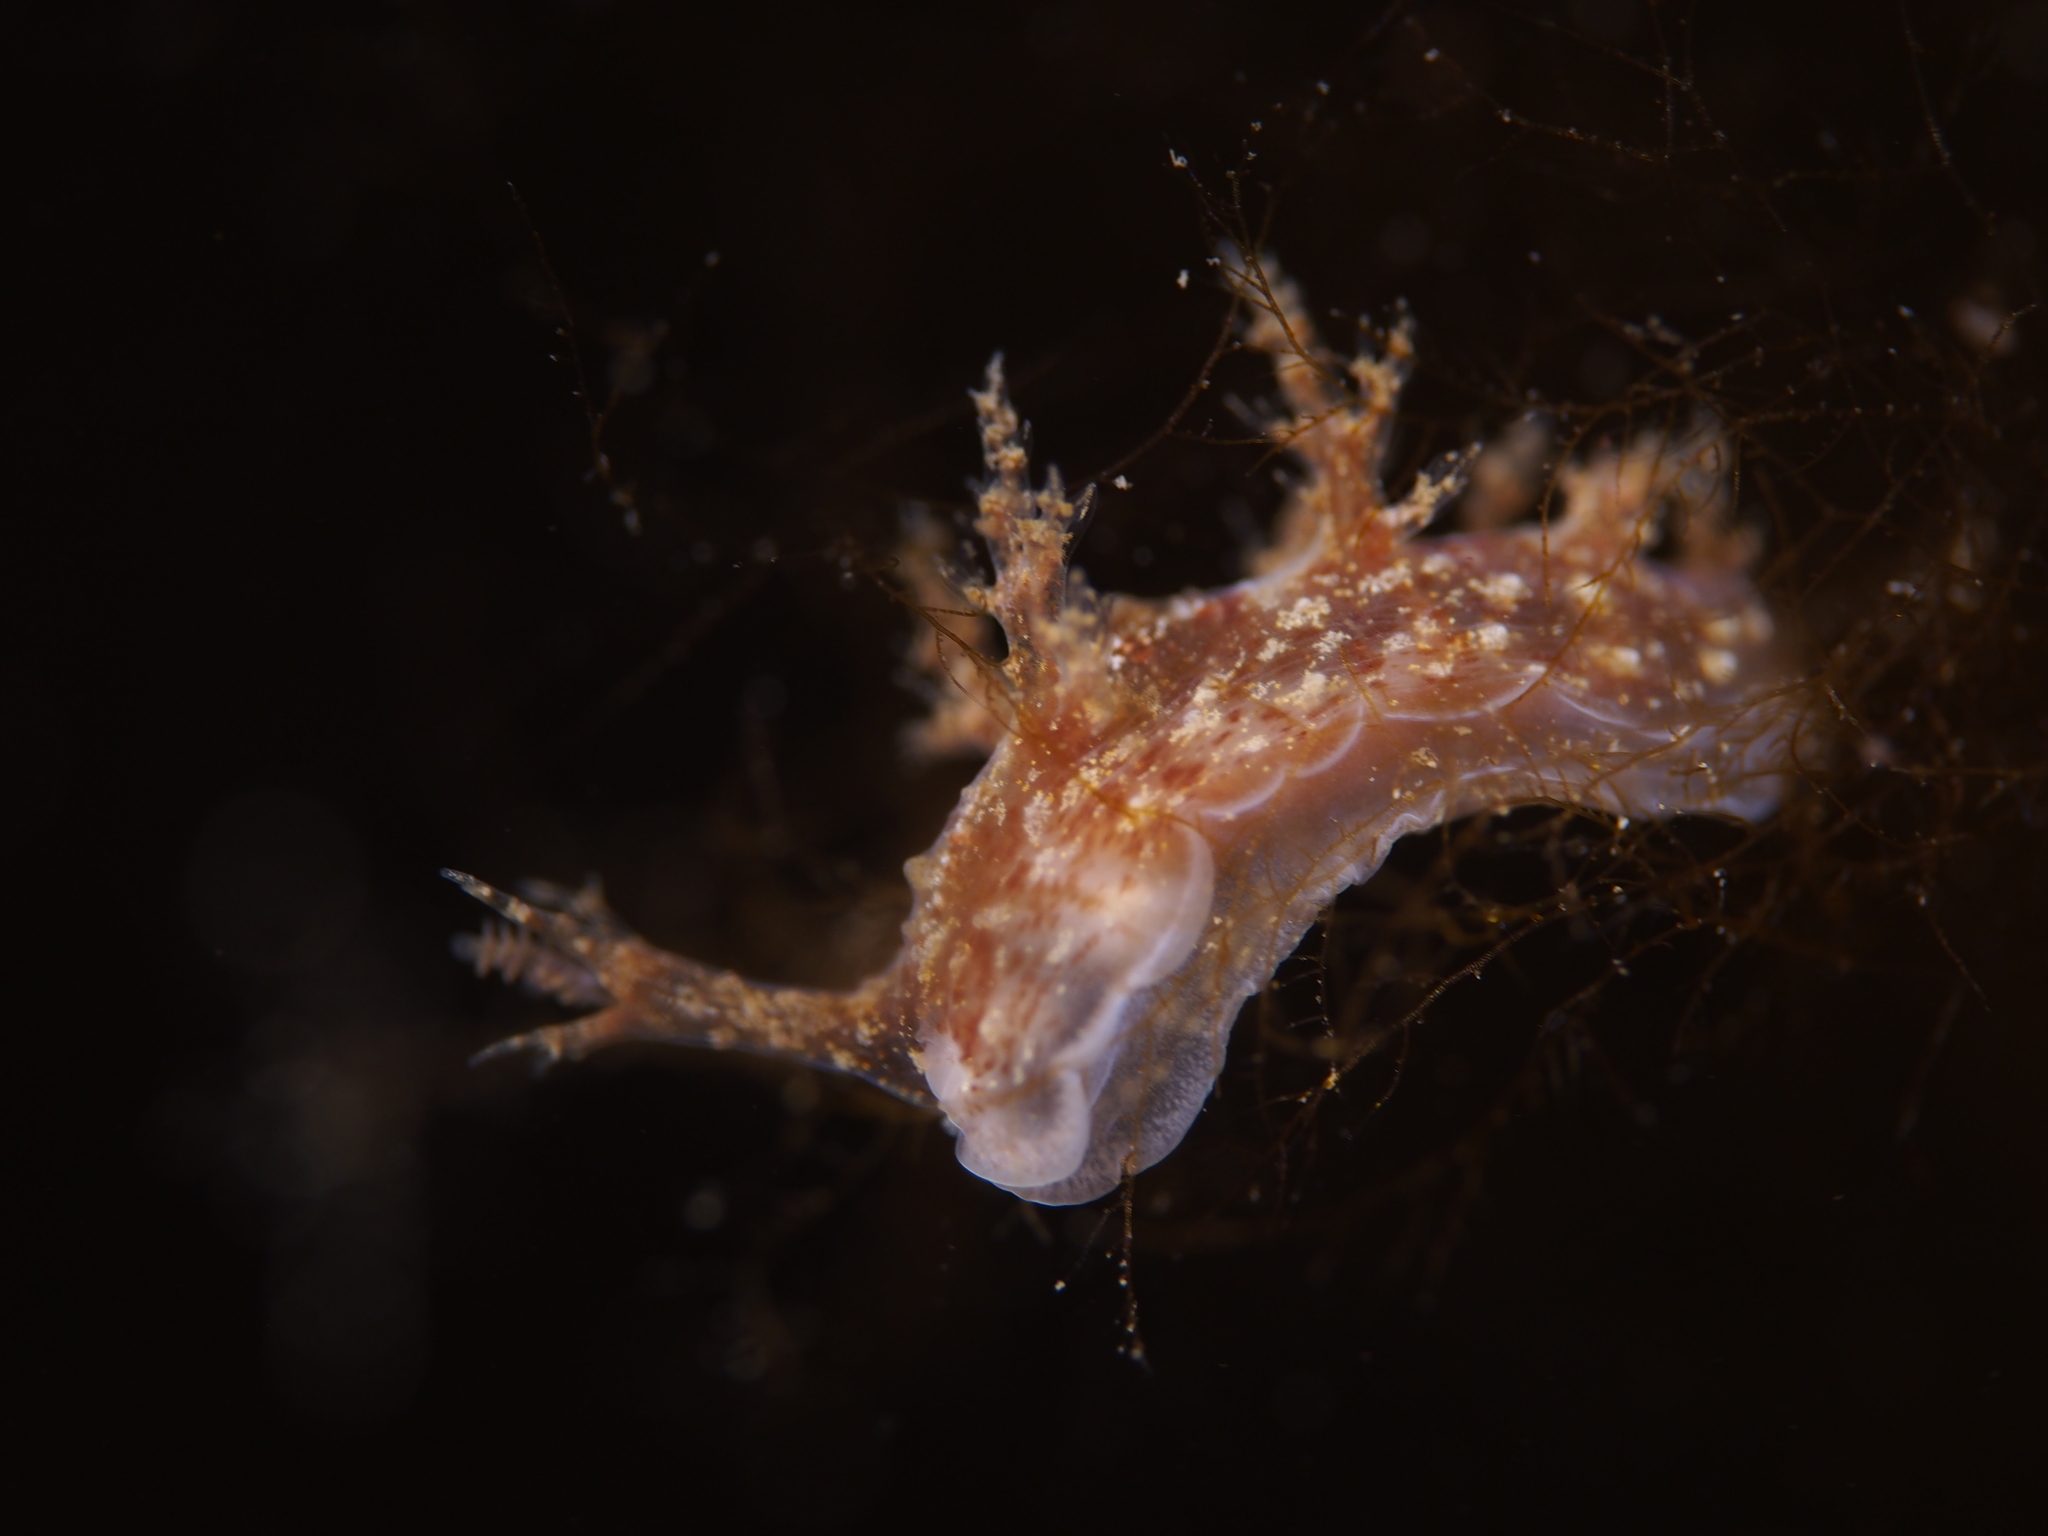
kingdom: Animalia
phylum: Mollusca
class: Gastropoda
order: Nudibranchia
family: Dendronotidae
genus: Dendronotus
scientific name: Dendronotus frondosus
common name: Bushy-backed nudibranch
